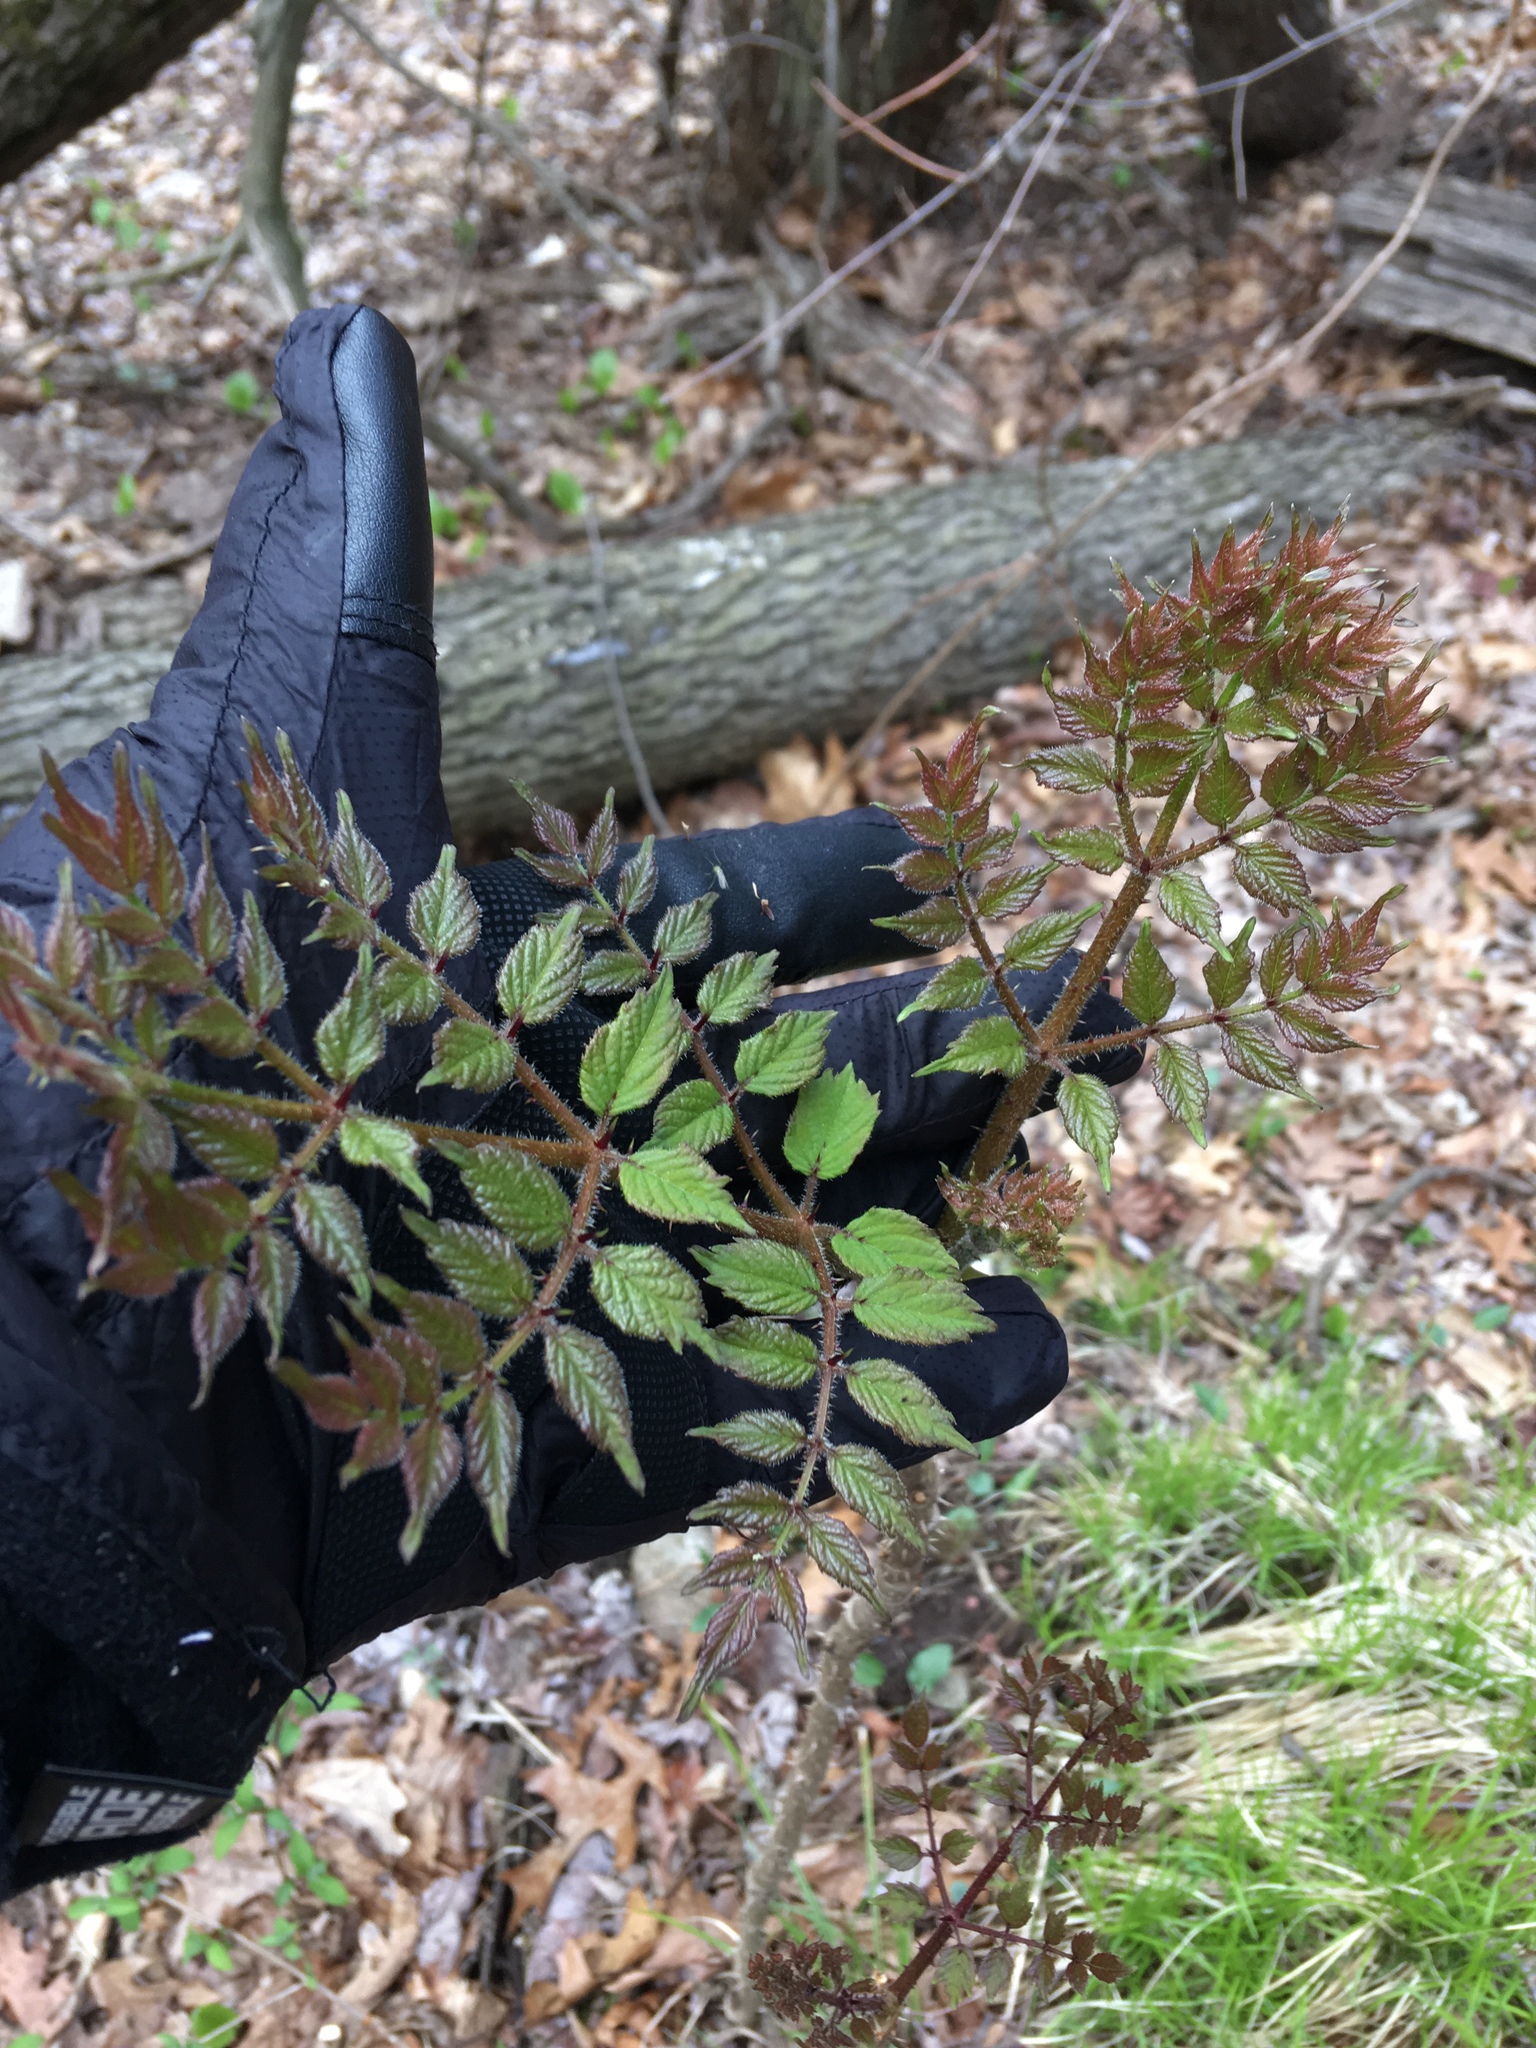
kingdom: Plantae
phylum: Tracheophyta
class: Magnoliopsida
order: Apiales
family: Araliaceae
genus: Aralia
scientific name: Aralia elata
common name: Japanese angelica-tree
